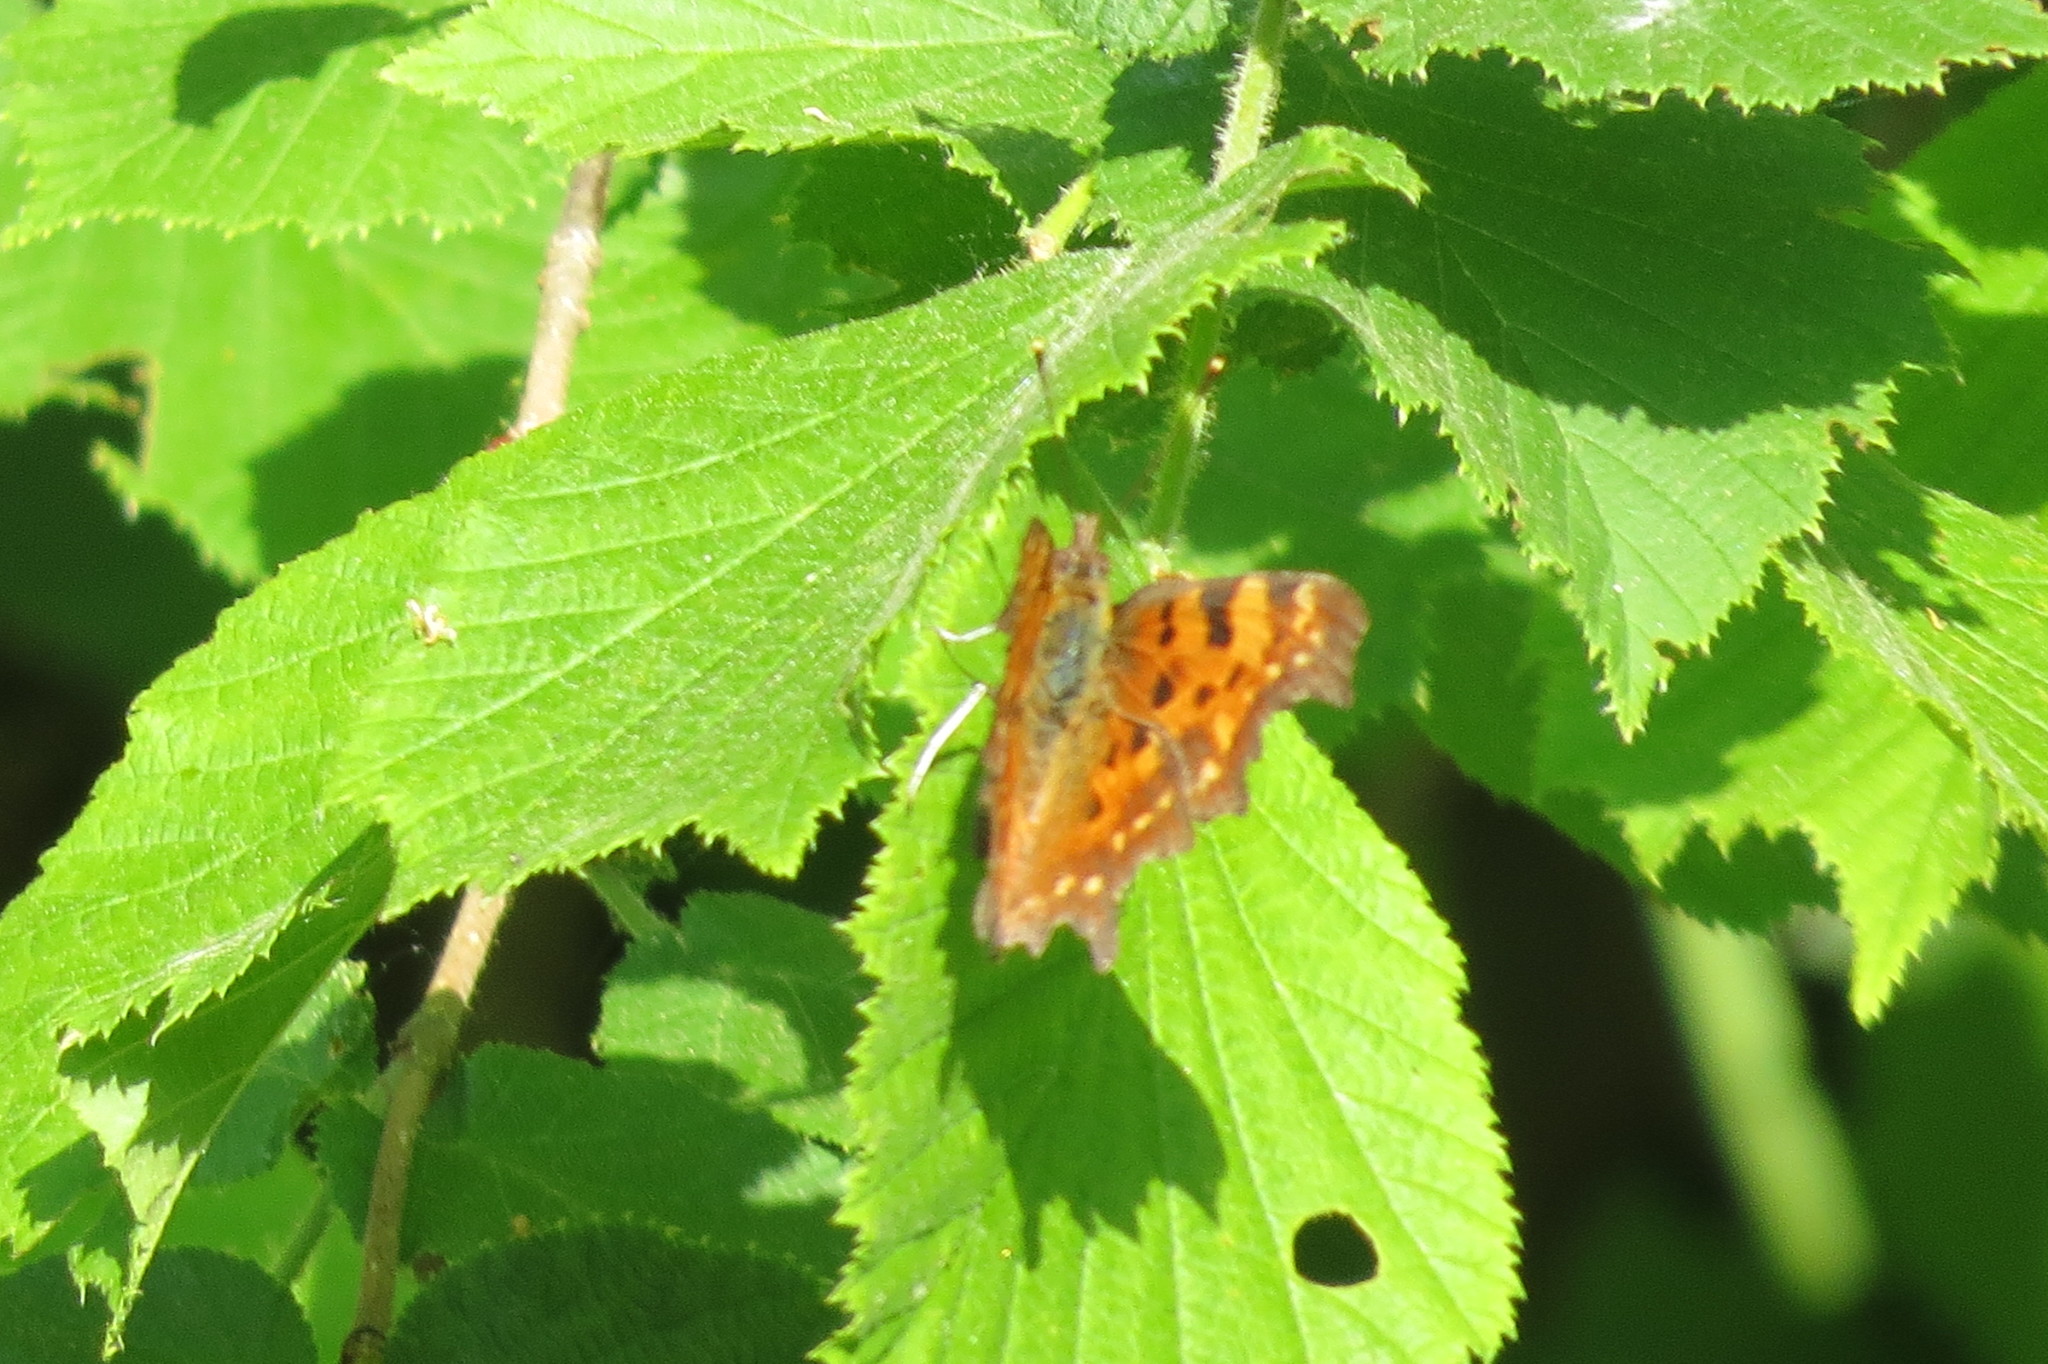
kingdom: Animalia
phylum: Arthropoda
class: Insecta
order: Lepidoptera
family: Nymphalidae
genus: Polygonia
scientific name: Polygonia c-album
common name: Comma
